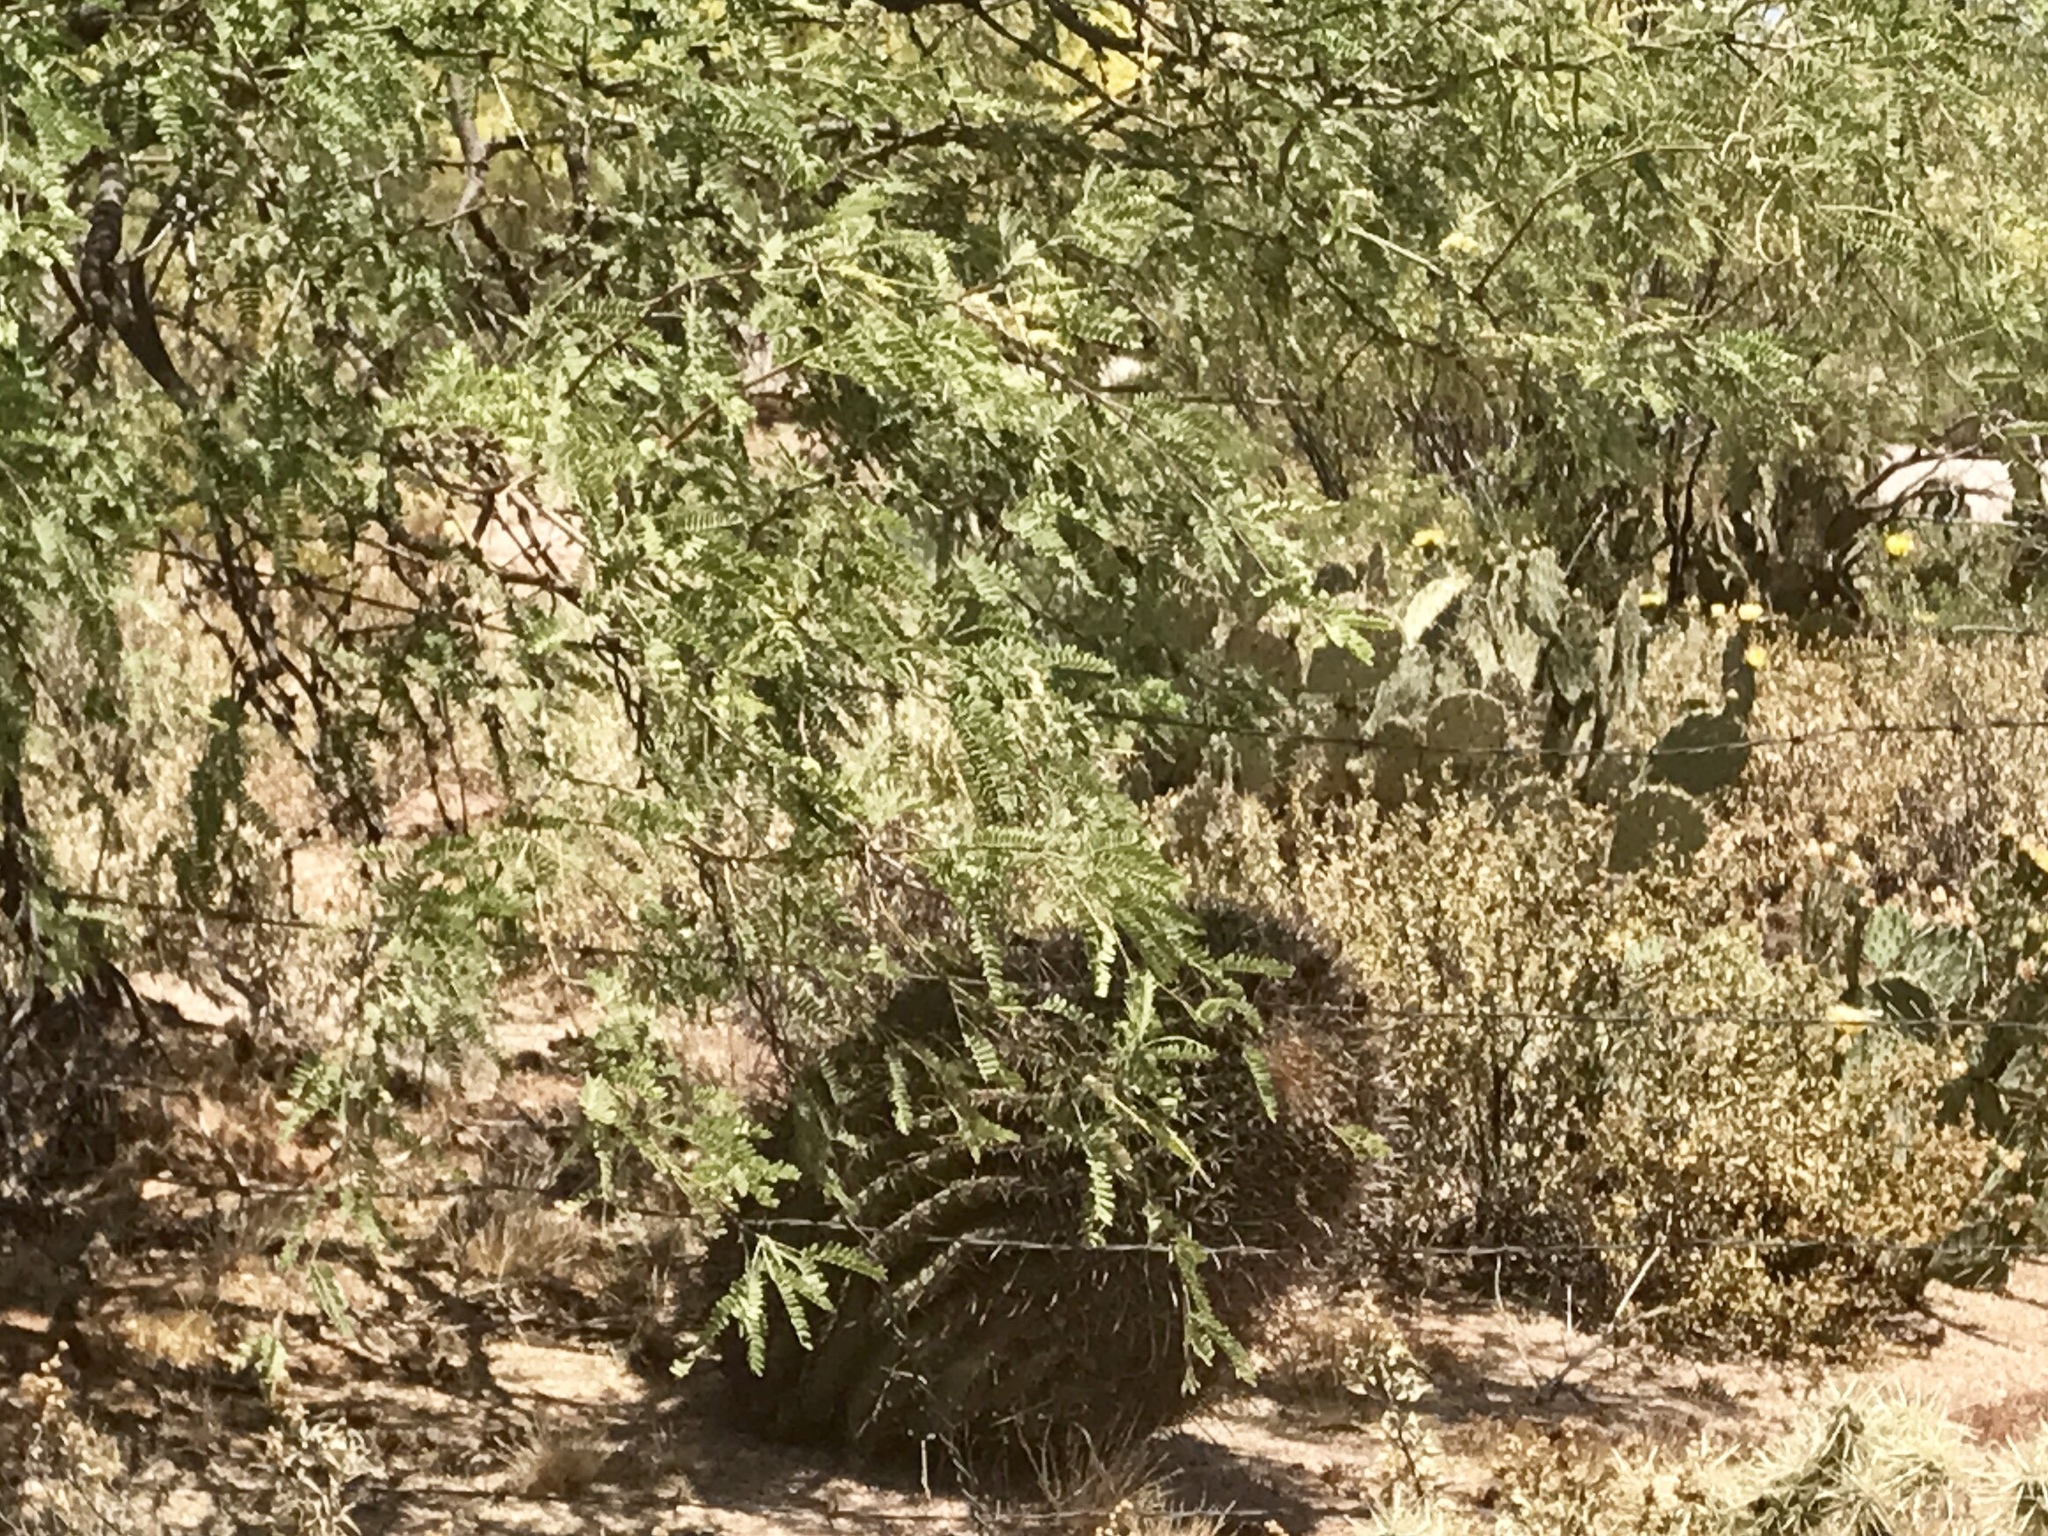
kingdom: Plantae
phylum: Tracheophyta
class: Magnoliopsida
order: Caryophyllales
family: Cactaceae
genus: Ferocactus
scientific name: Ferocactus wislizeni
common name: Candy barrel cactus
